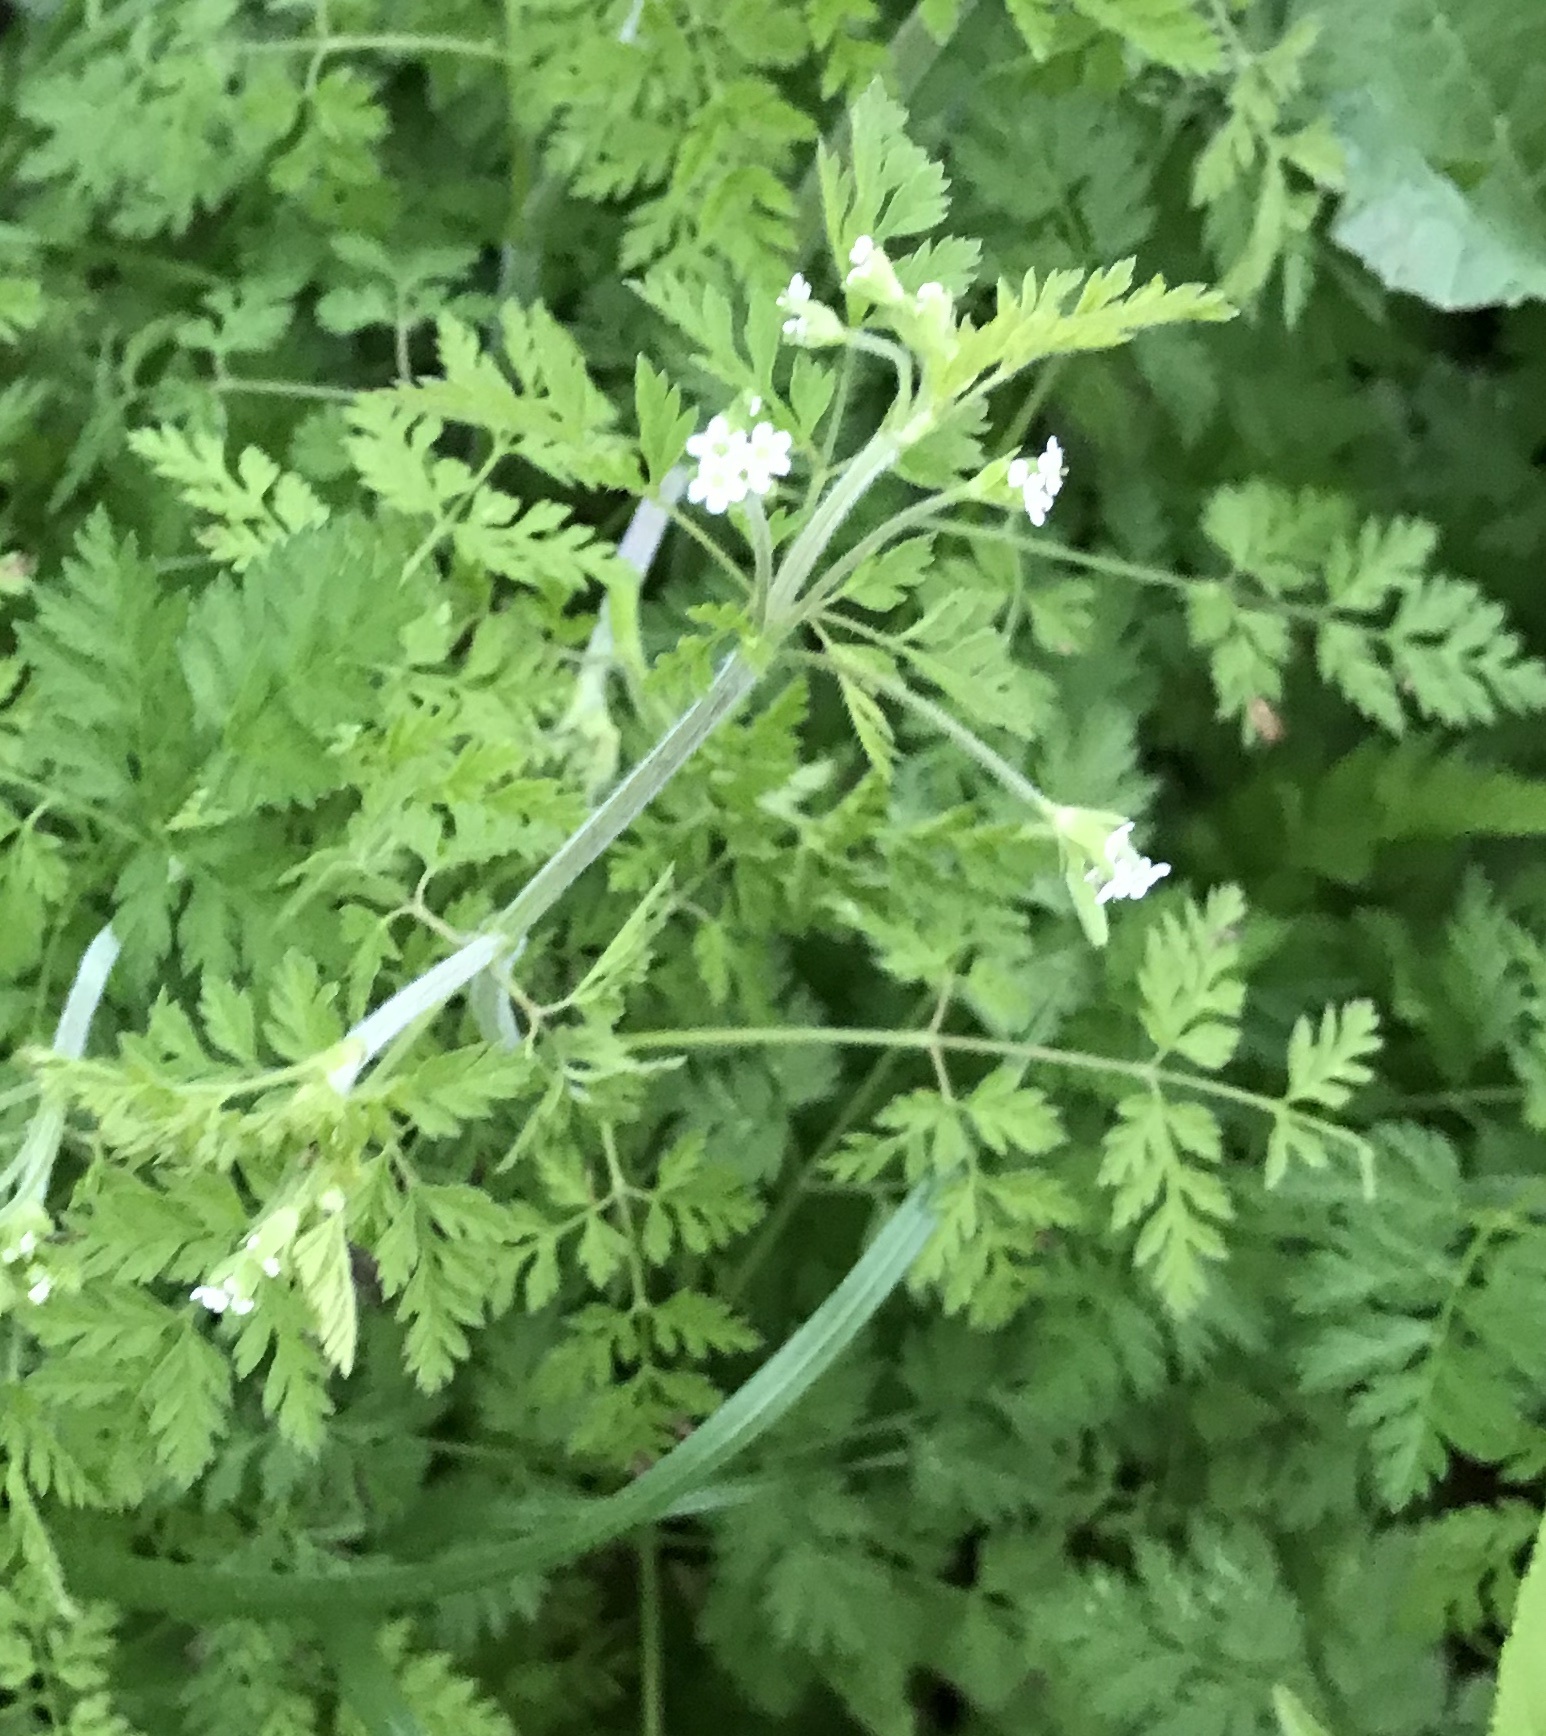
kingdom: Plantae
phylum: Tracheophyta
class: Magnoliopsida
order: Apiales
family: Apiaceae
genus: Chaerophyllum
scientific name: Chaerophyllum tainturieri
